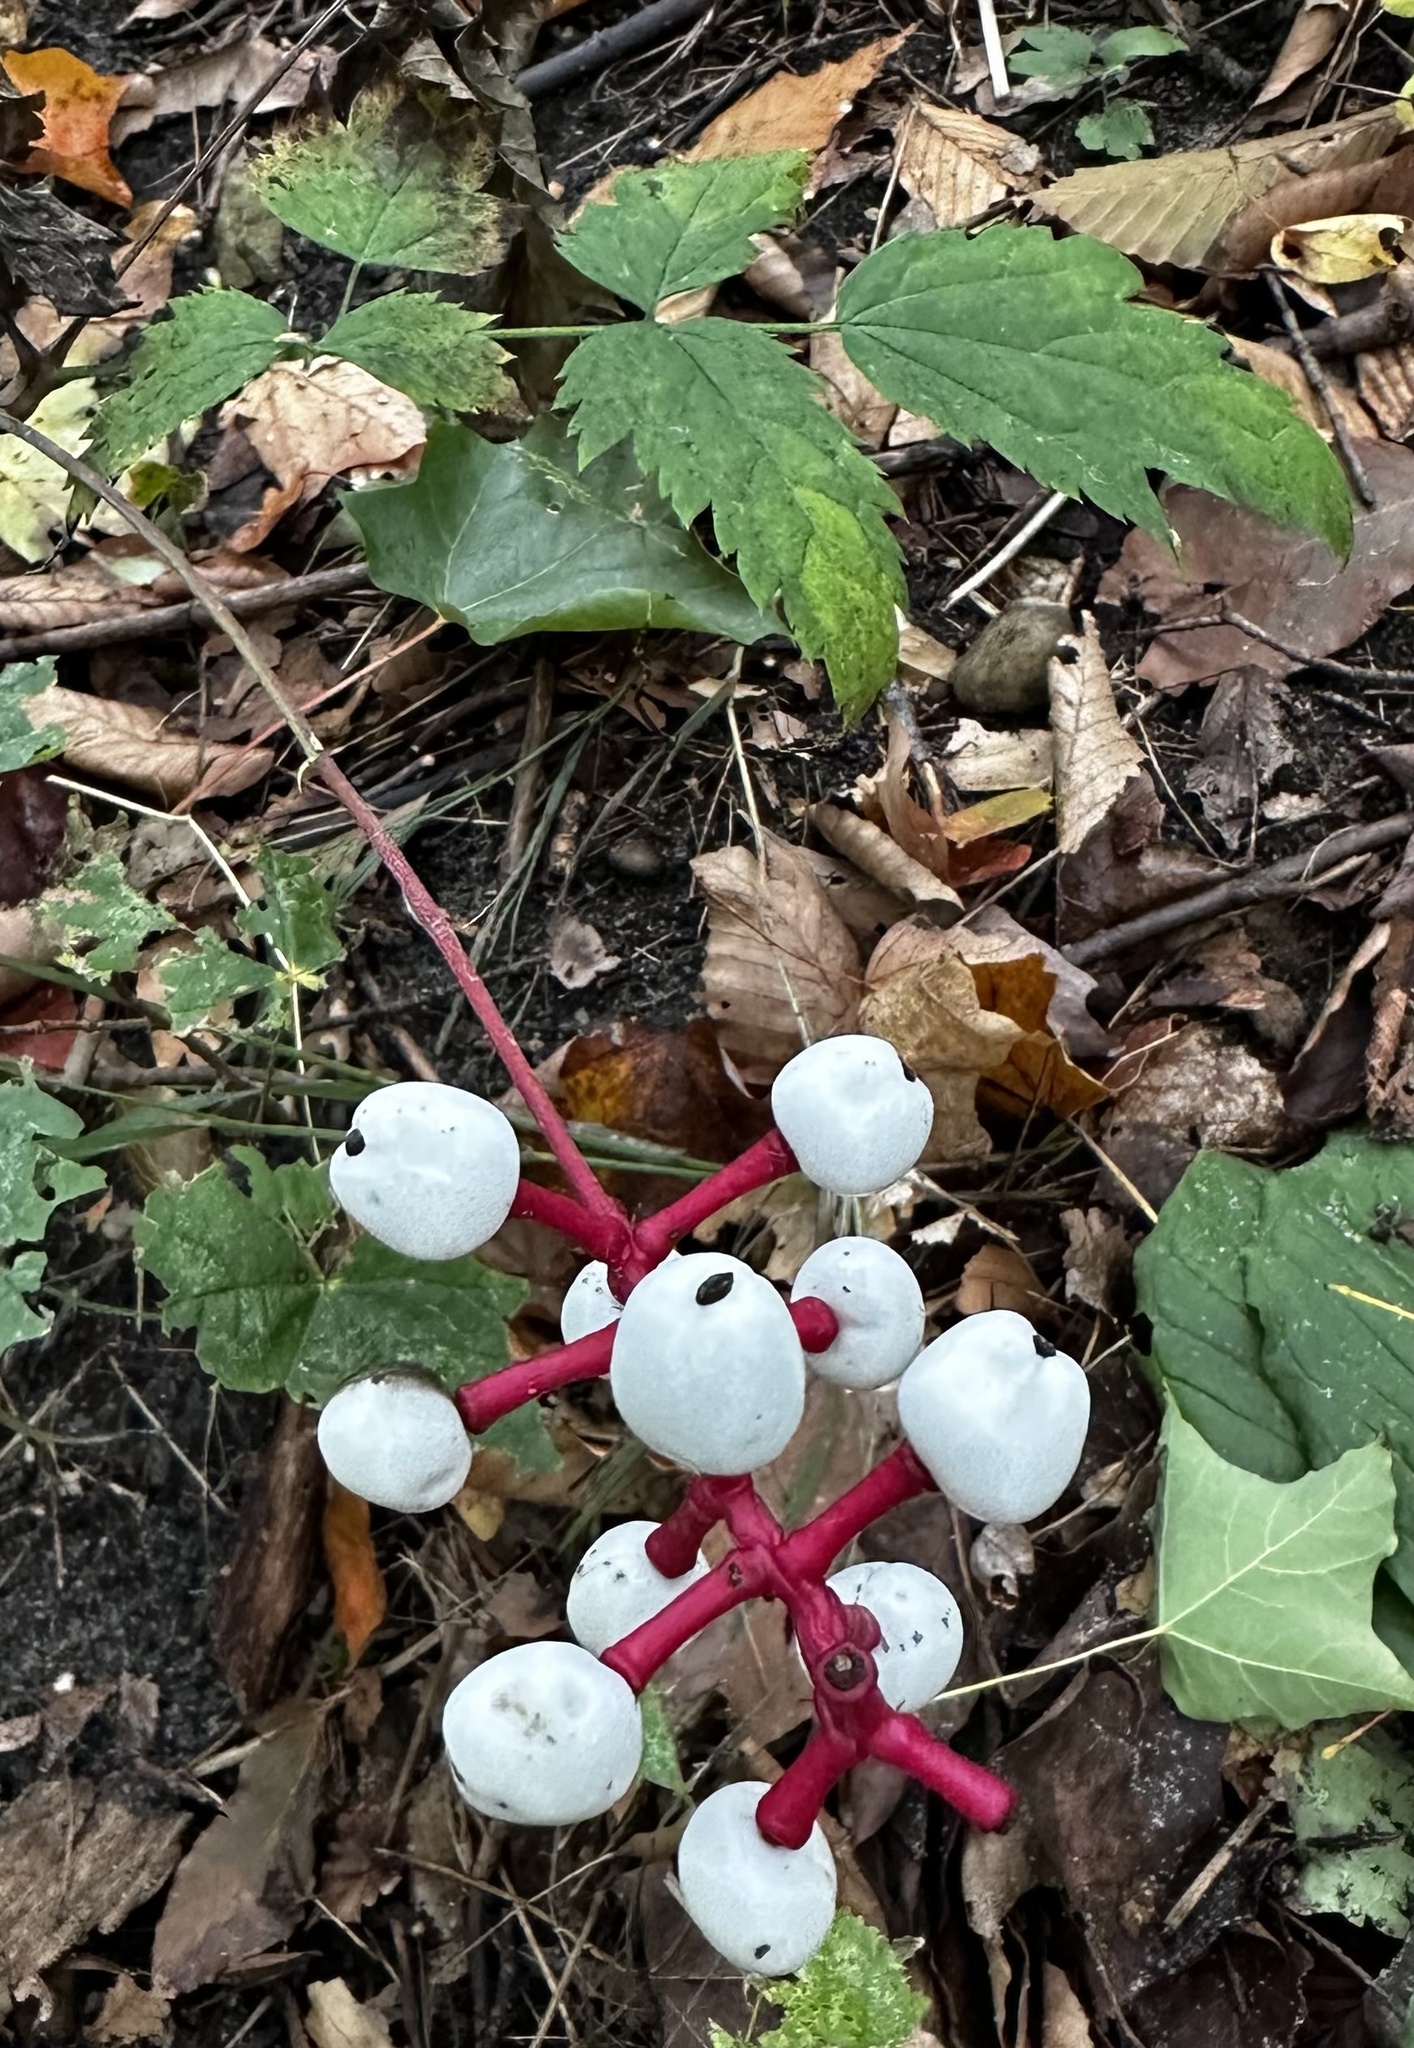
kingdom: Plantae
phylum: Tracheophyta
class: Magnoliopsida
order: Ranunculales
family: Ranunculaceae
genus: Actaea
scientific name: Actaea pachypoda
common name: Doll's-eyes
